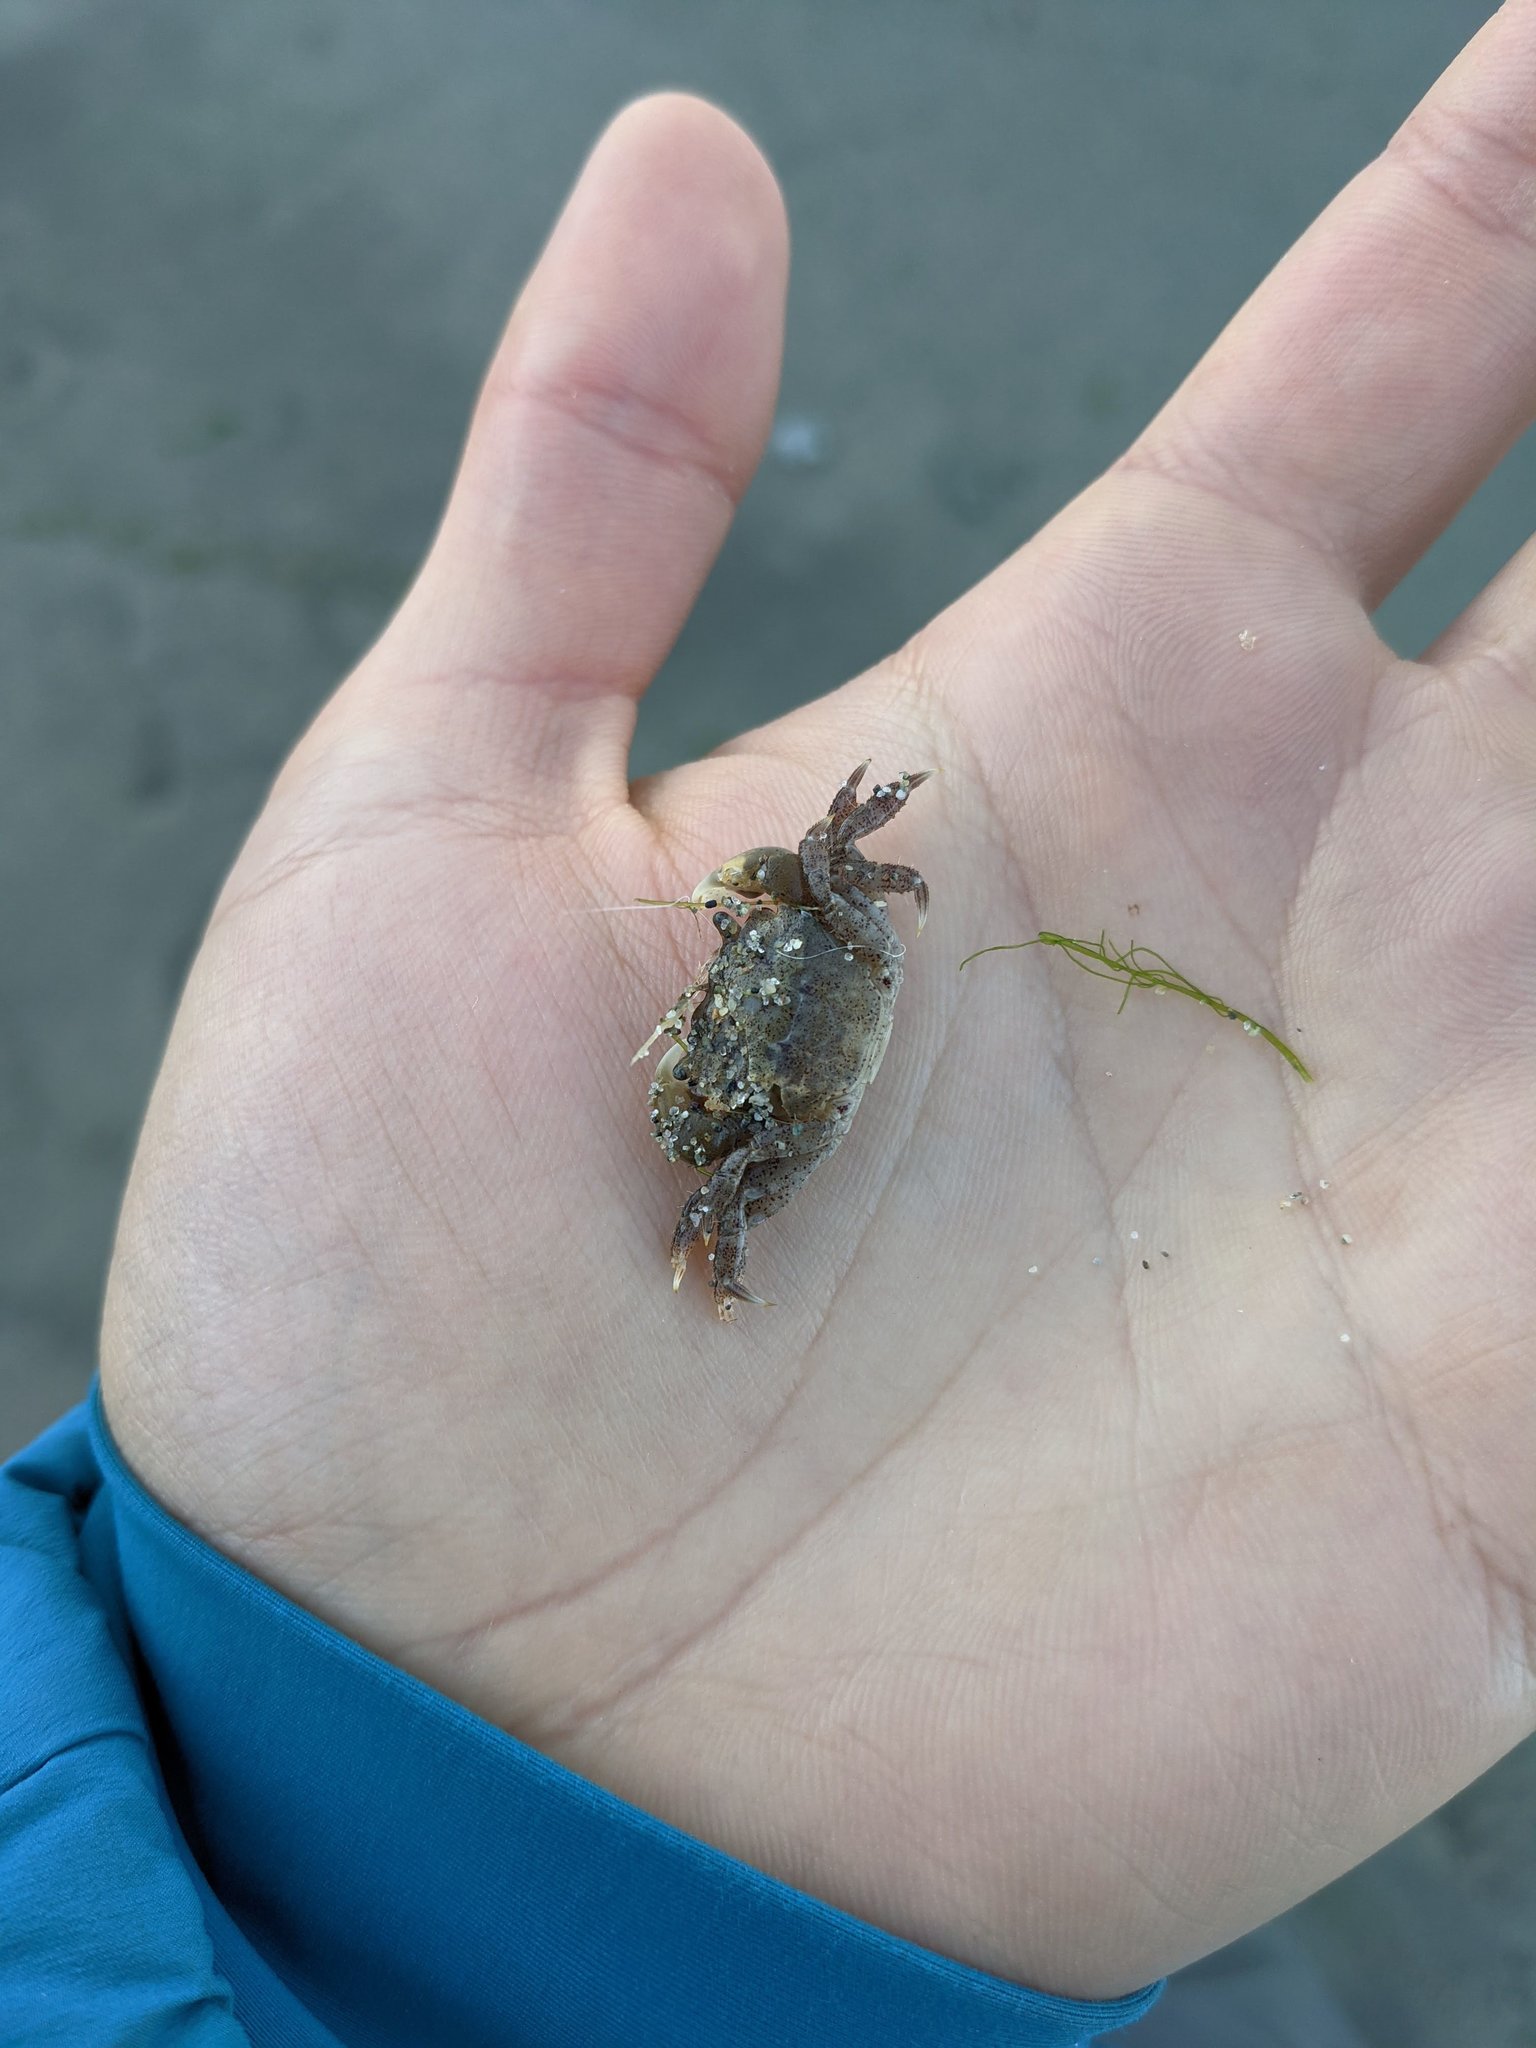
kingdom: Animalia
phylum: Arthropoda
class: Malacostraca
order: Decapoda
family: Varunidae
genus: Hemigrapsus
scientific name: Hemigrapsus oregonensis
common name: Yellow shore crab
